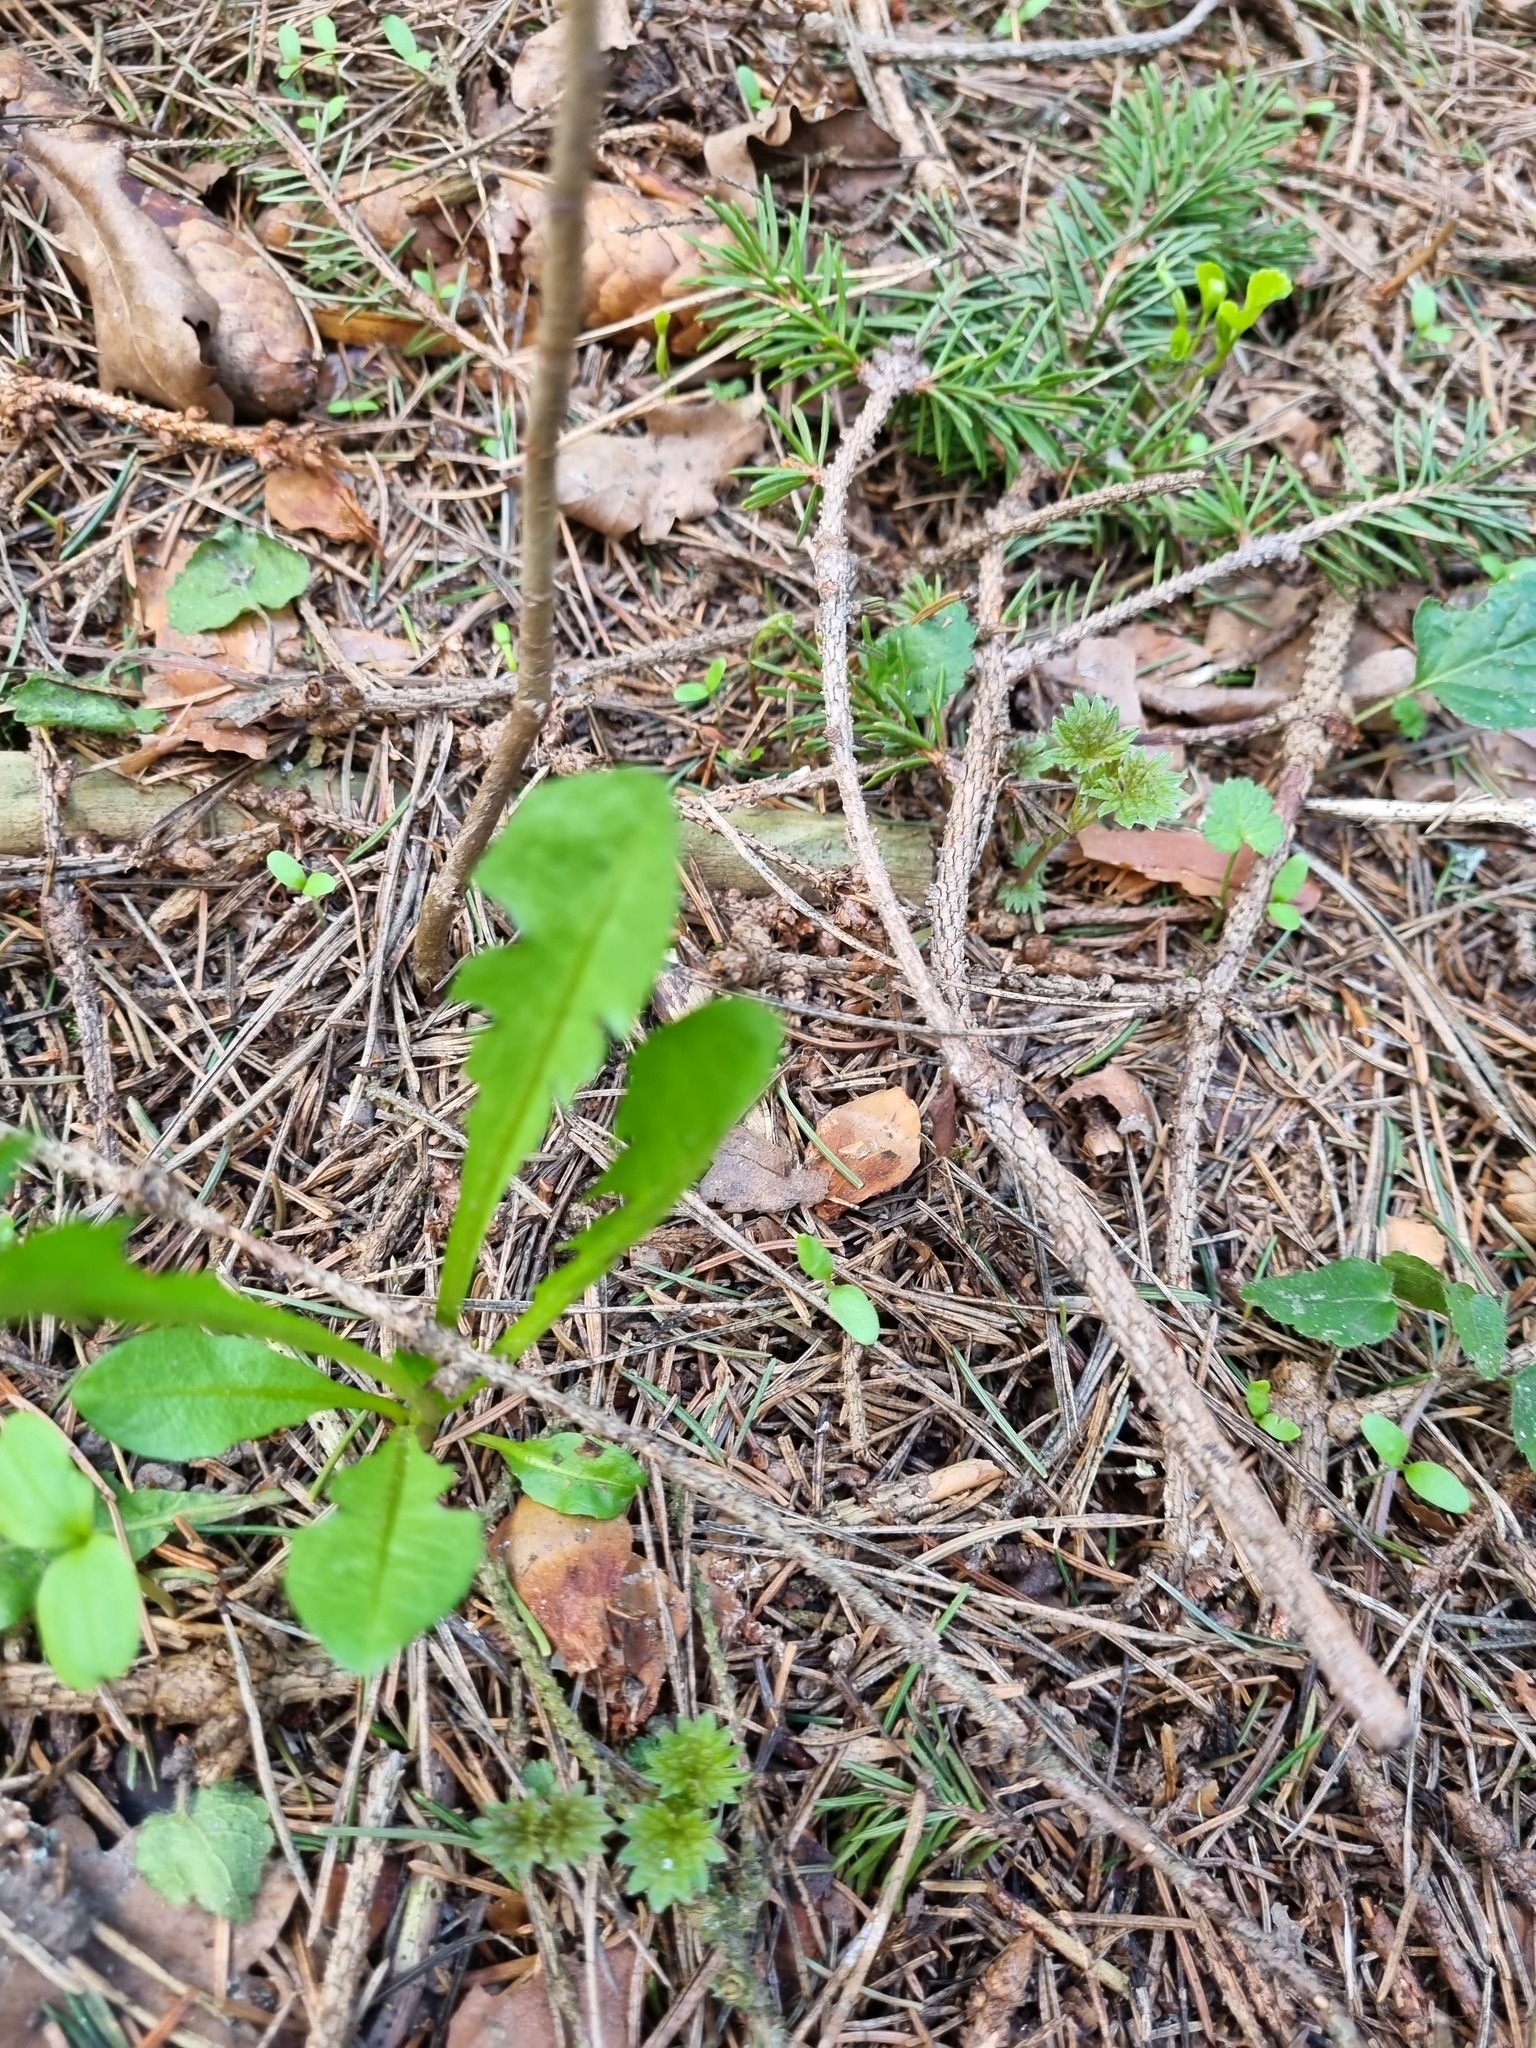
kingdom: Plantae
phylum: Tracheophyta
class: Magnoliopsida
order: Asterales
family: Asteraceae
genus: Taraxacum
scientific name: Taraxacum officinale
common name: Common dandelion
